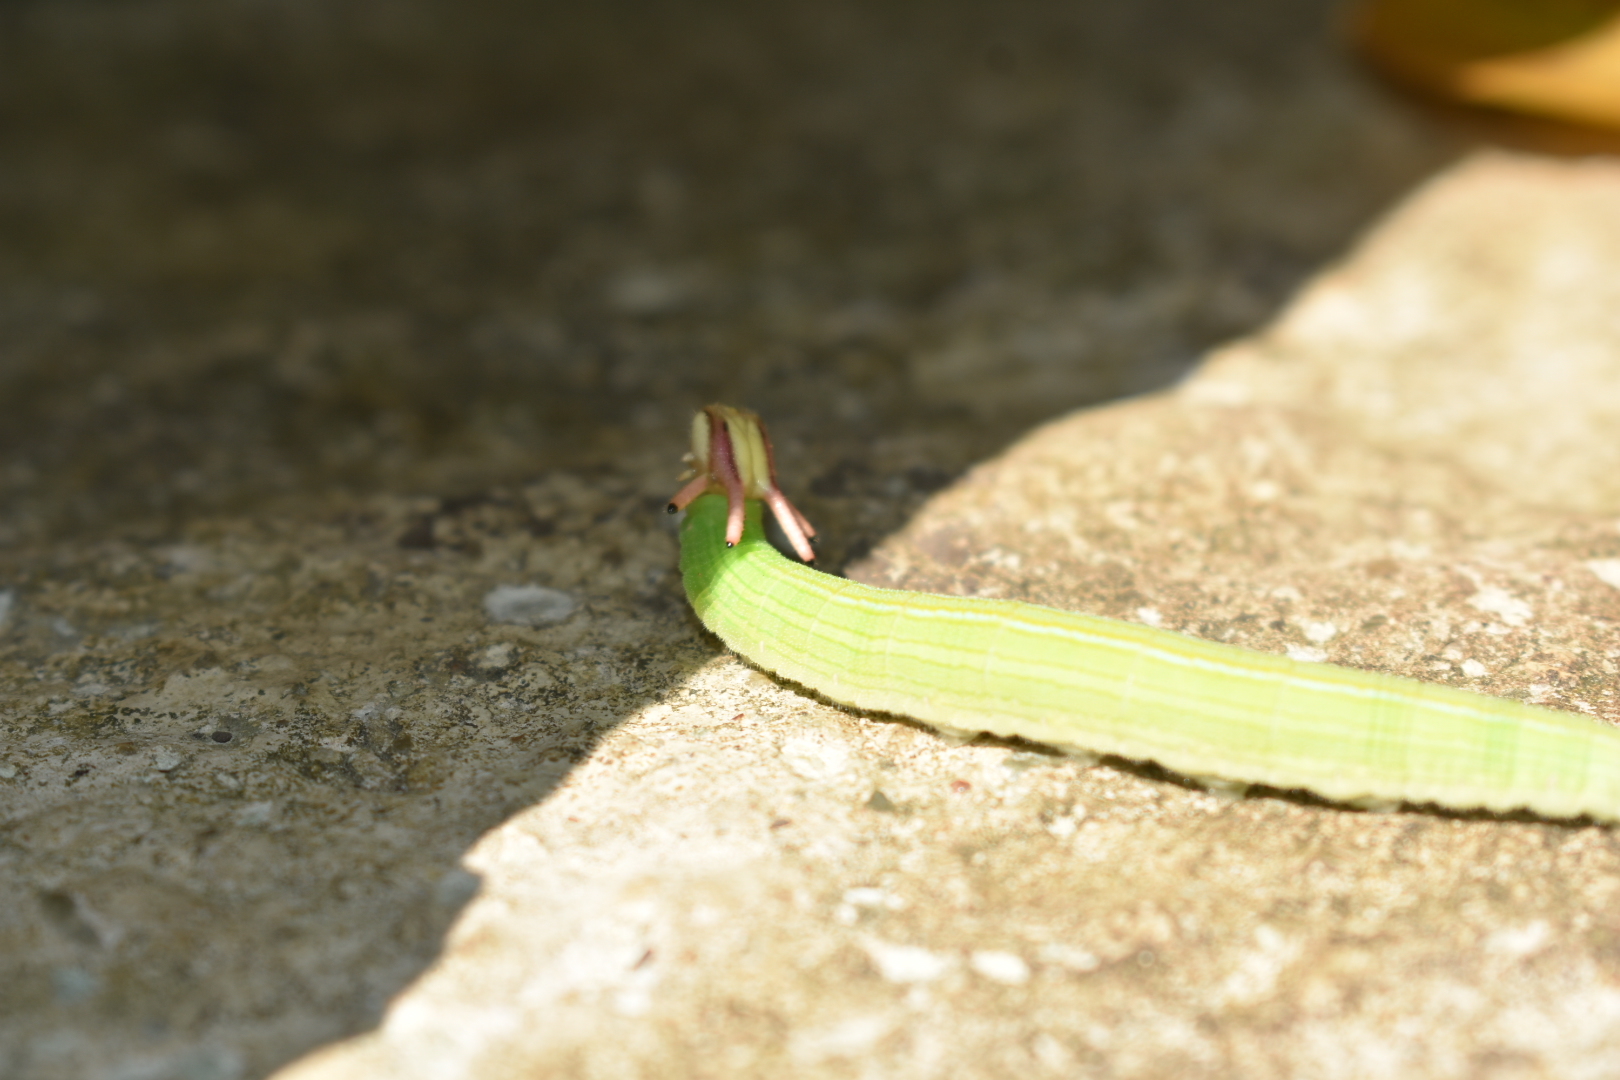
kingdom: Animalia
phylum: Arthropoda
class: Insecta
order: Lepidoptera
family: Nymphalidae
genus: Opsiphanes
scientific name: Opsiphanes cassiae
